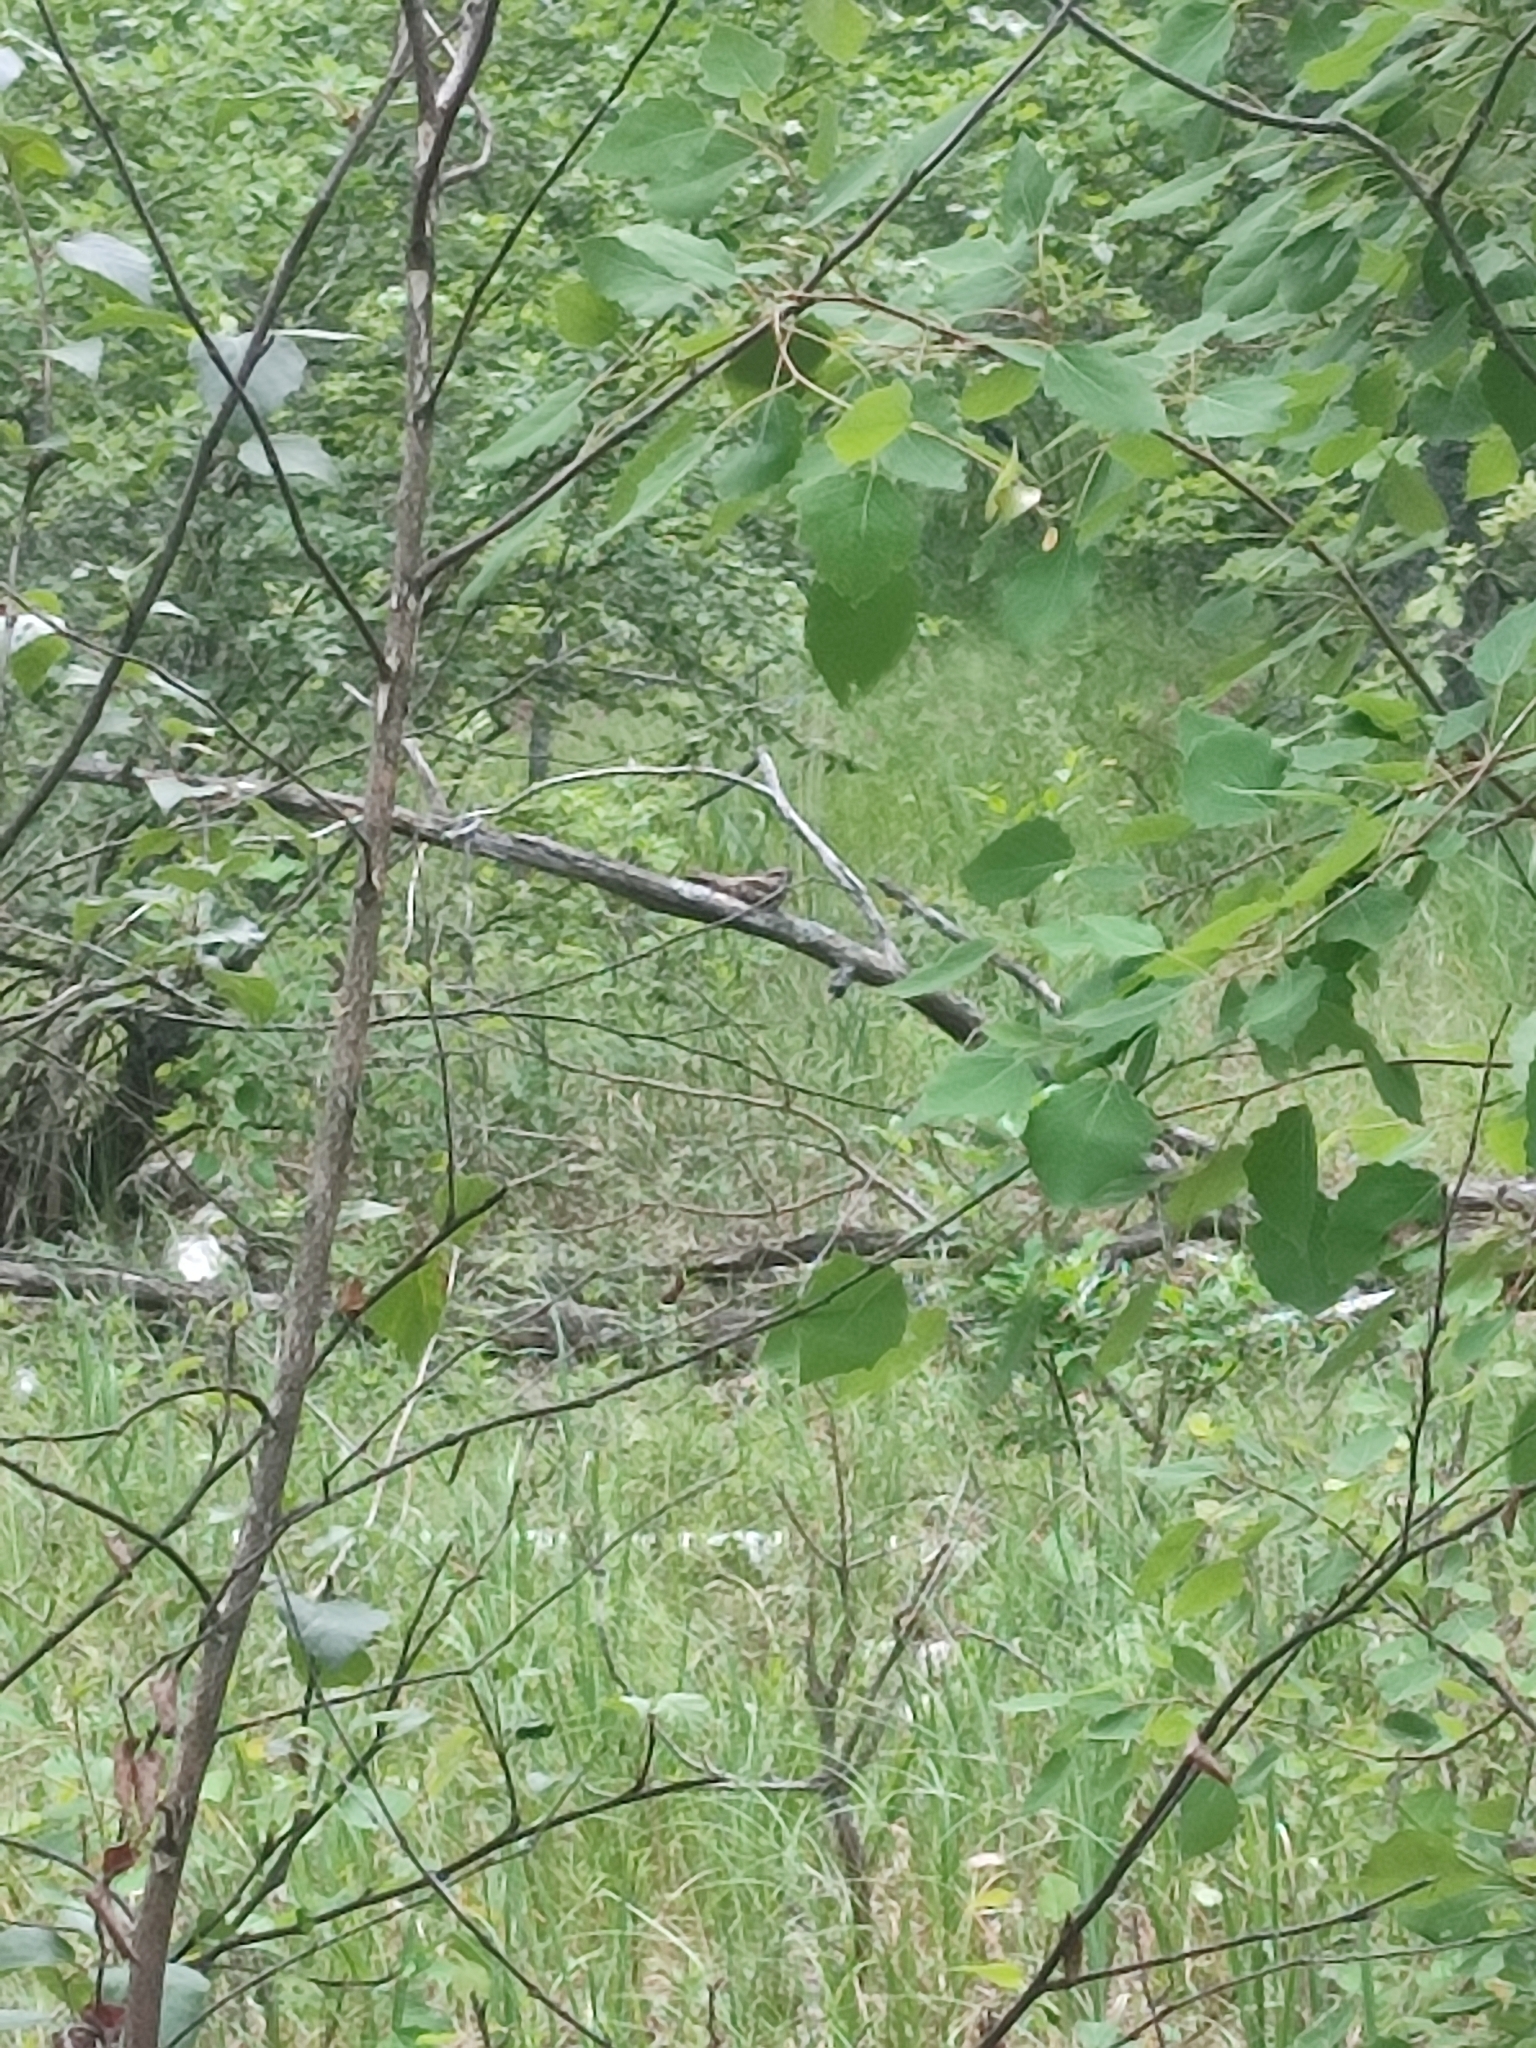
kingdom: Animalia
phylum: Chordata
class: Aves
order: Caprimulgiformes
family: Caprimulgidae
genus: Caprimulgus
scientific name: Caprimulgus europaeus
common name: European nightjar
